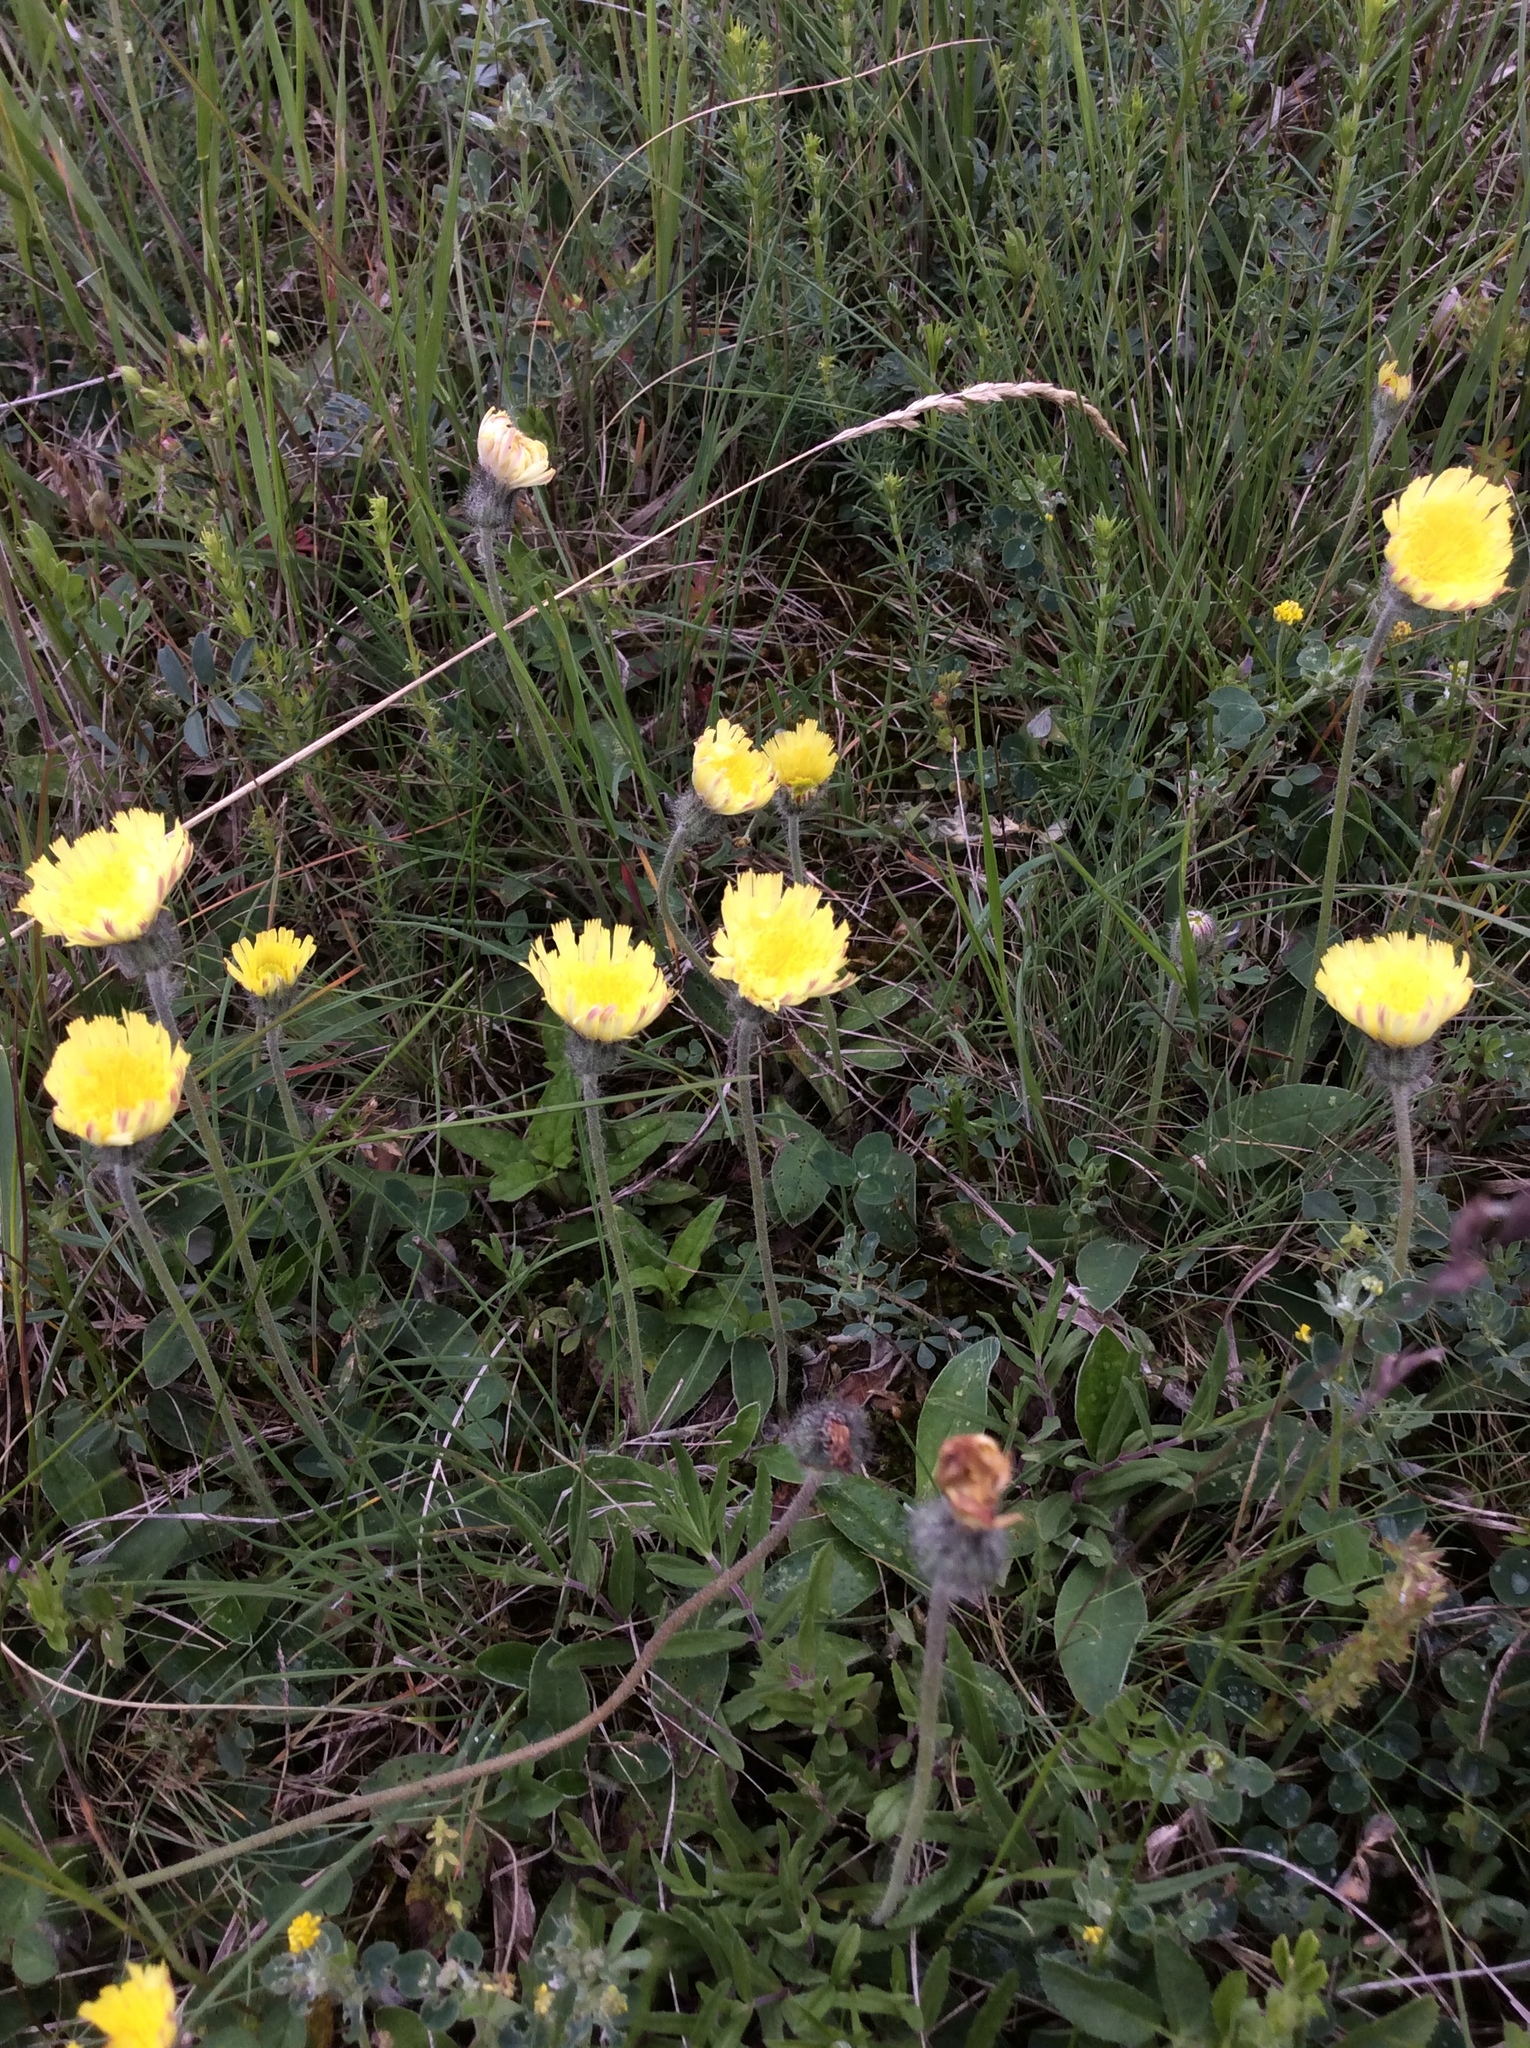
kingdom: Plantae
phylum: Tracheophyta
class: Magnoliopsida
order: Asterales
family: Asteraceae
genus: Pilosella
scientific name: Pilosella officinarum
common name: Mouse-ear hawkweed
